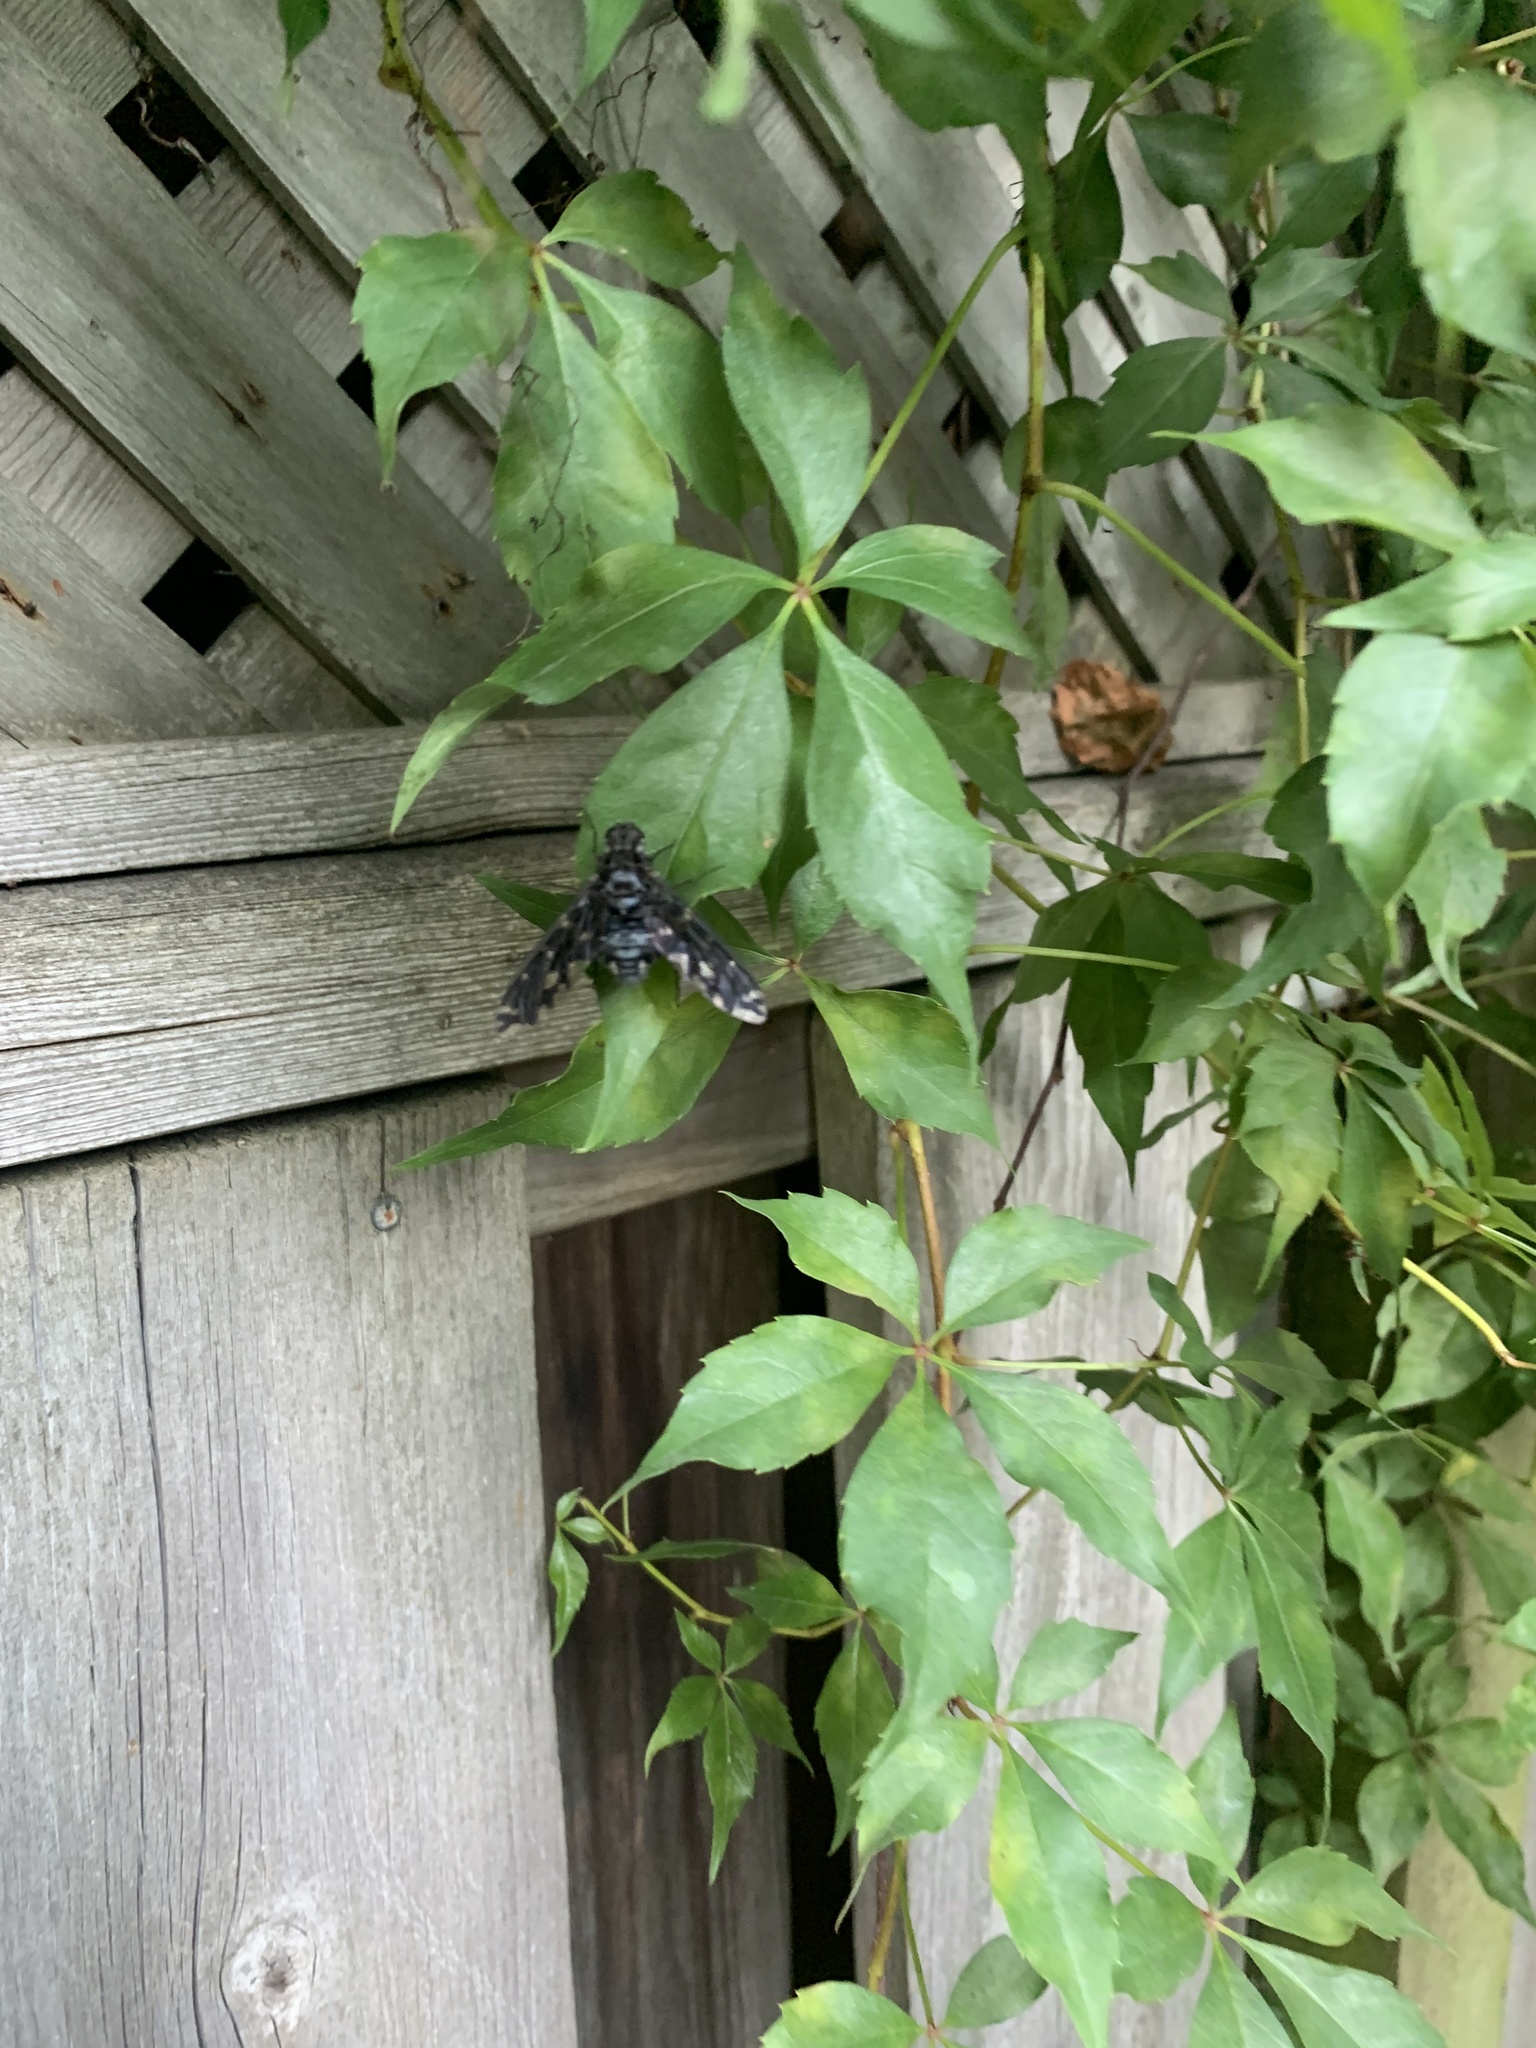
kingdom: Animalia
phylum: Arthropoda
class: Insecta
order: Diptera
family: Bombyliidae
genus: Xenox
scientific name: Xenox tigrinus
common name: Tiger bee fly
